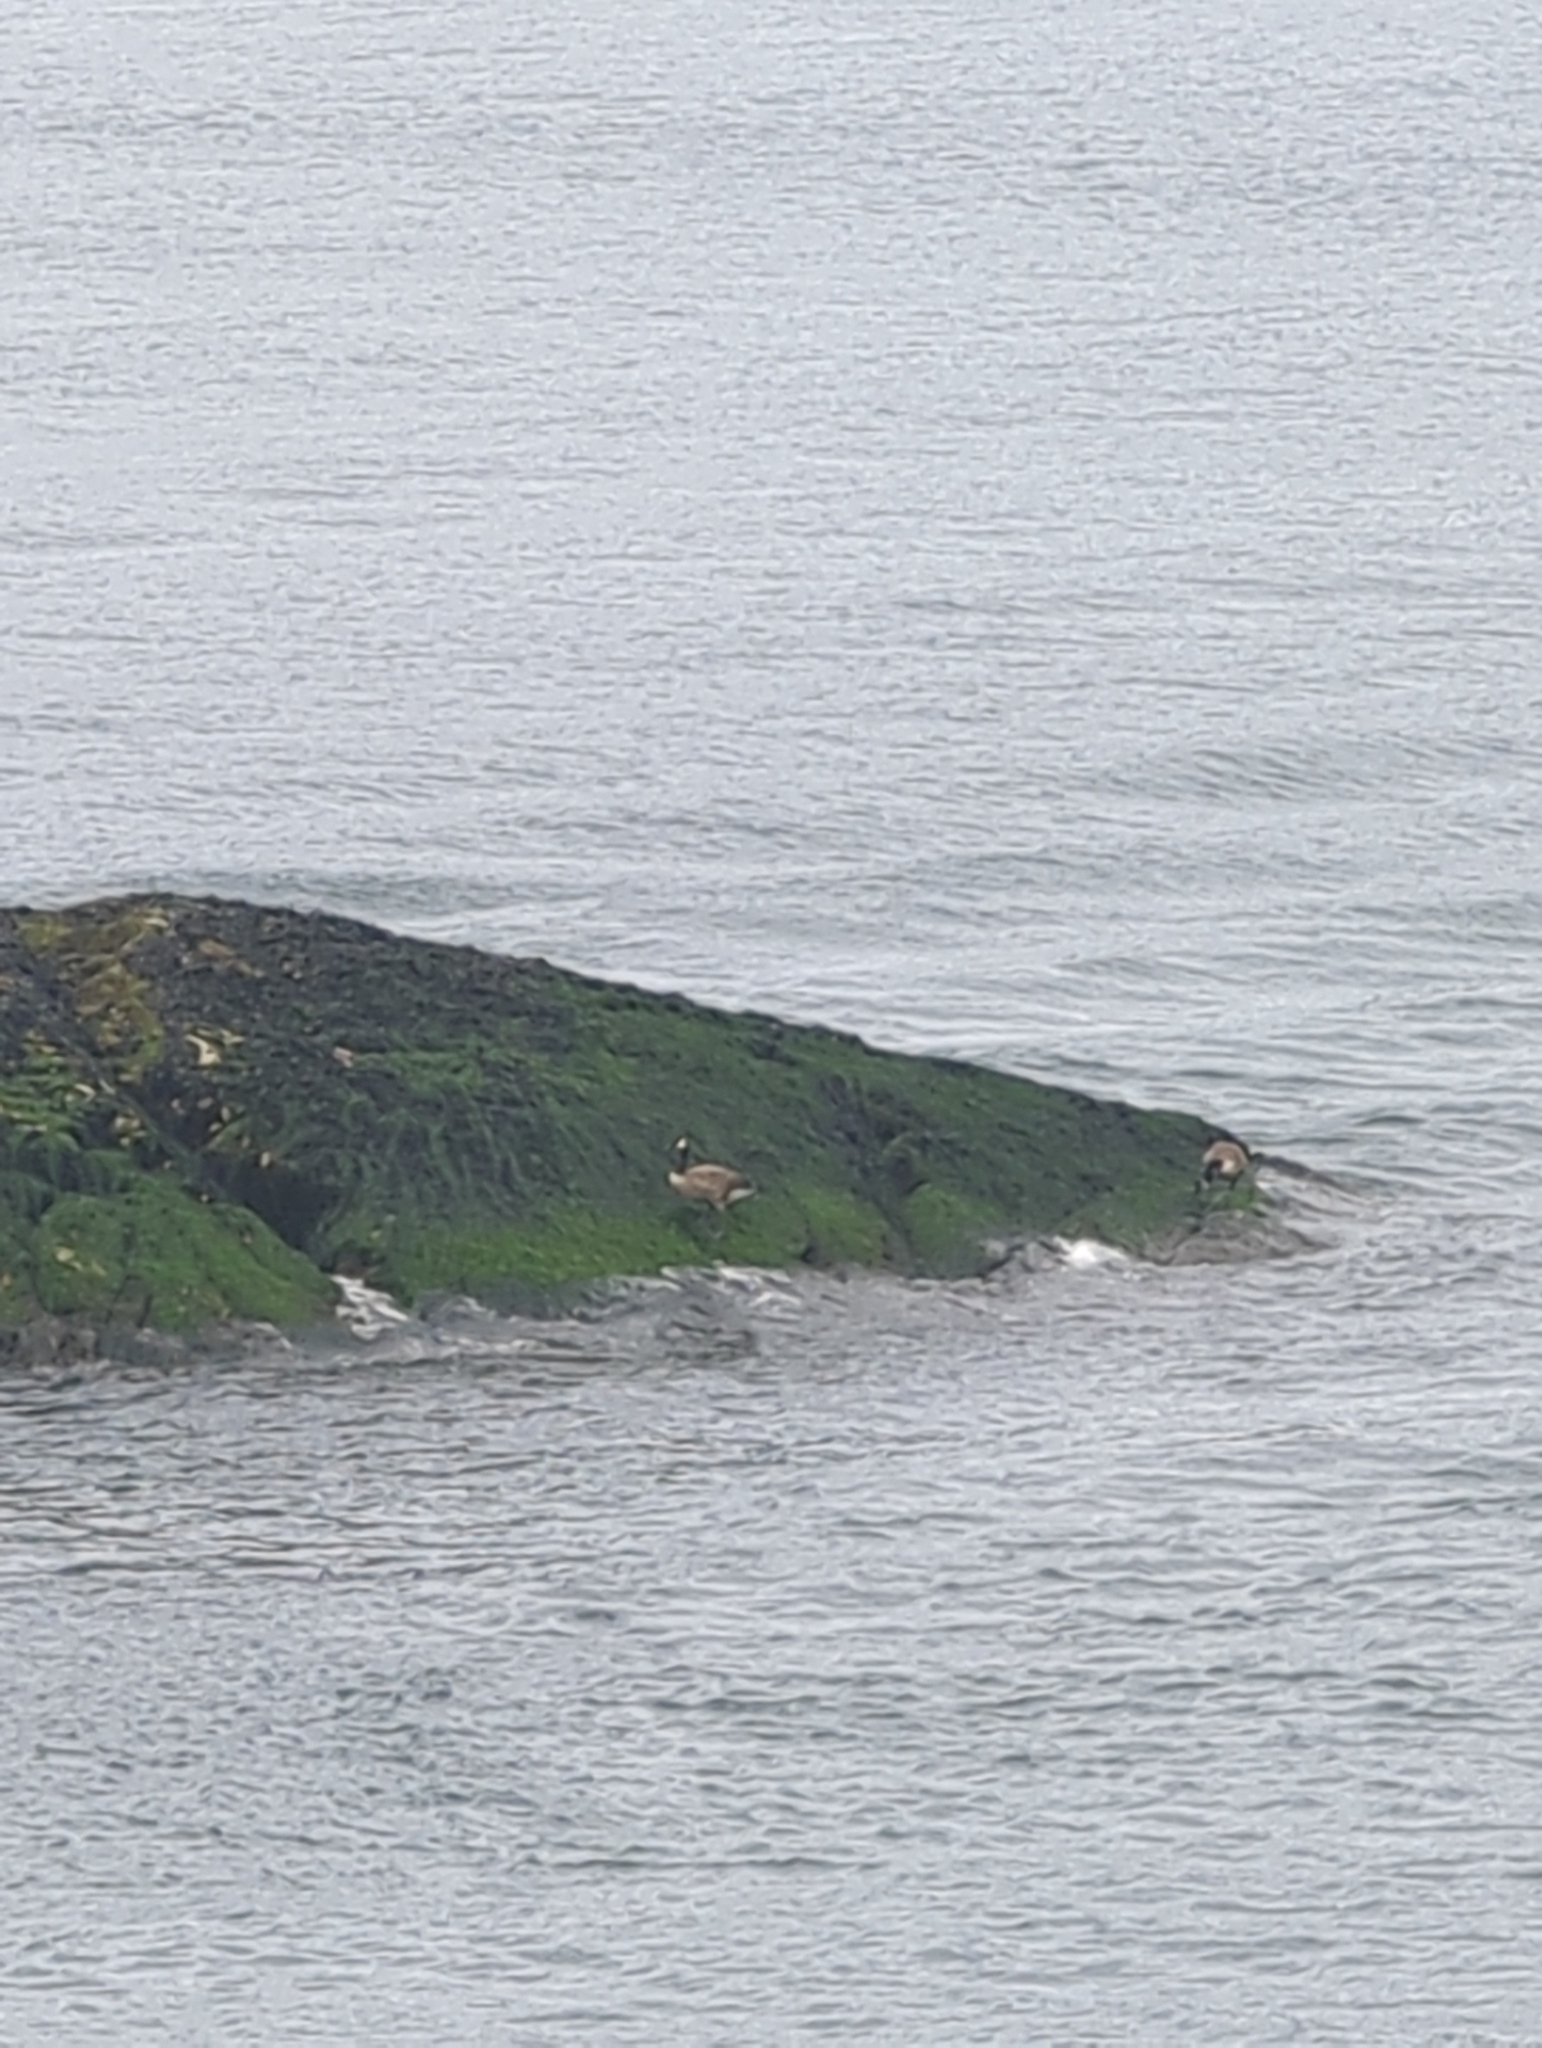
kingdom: Animalia
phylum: Chordata
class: Aves
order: Anseriformes
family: Anatidae
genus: Branta
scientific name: Branta canadensis
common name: Canada goose
